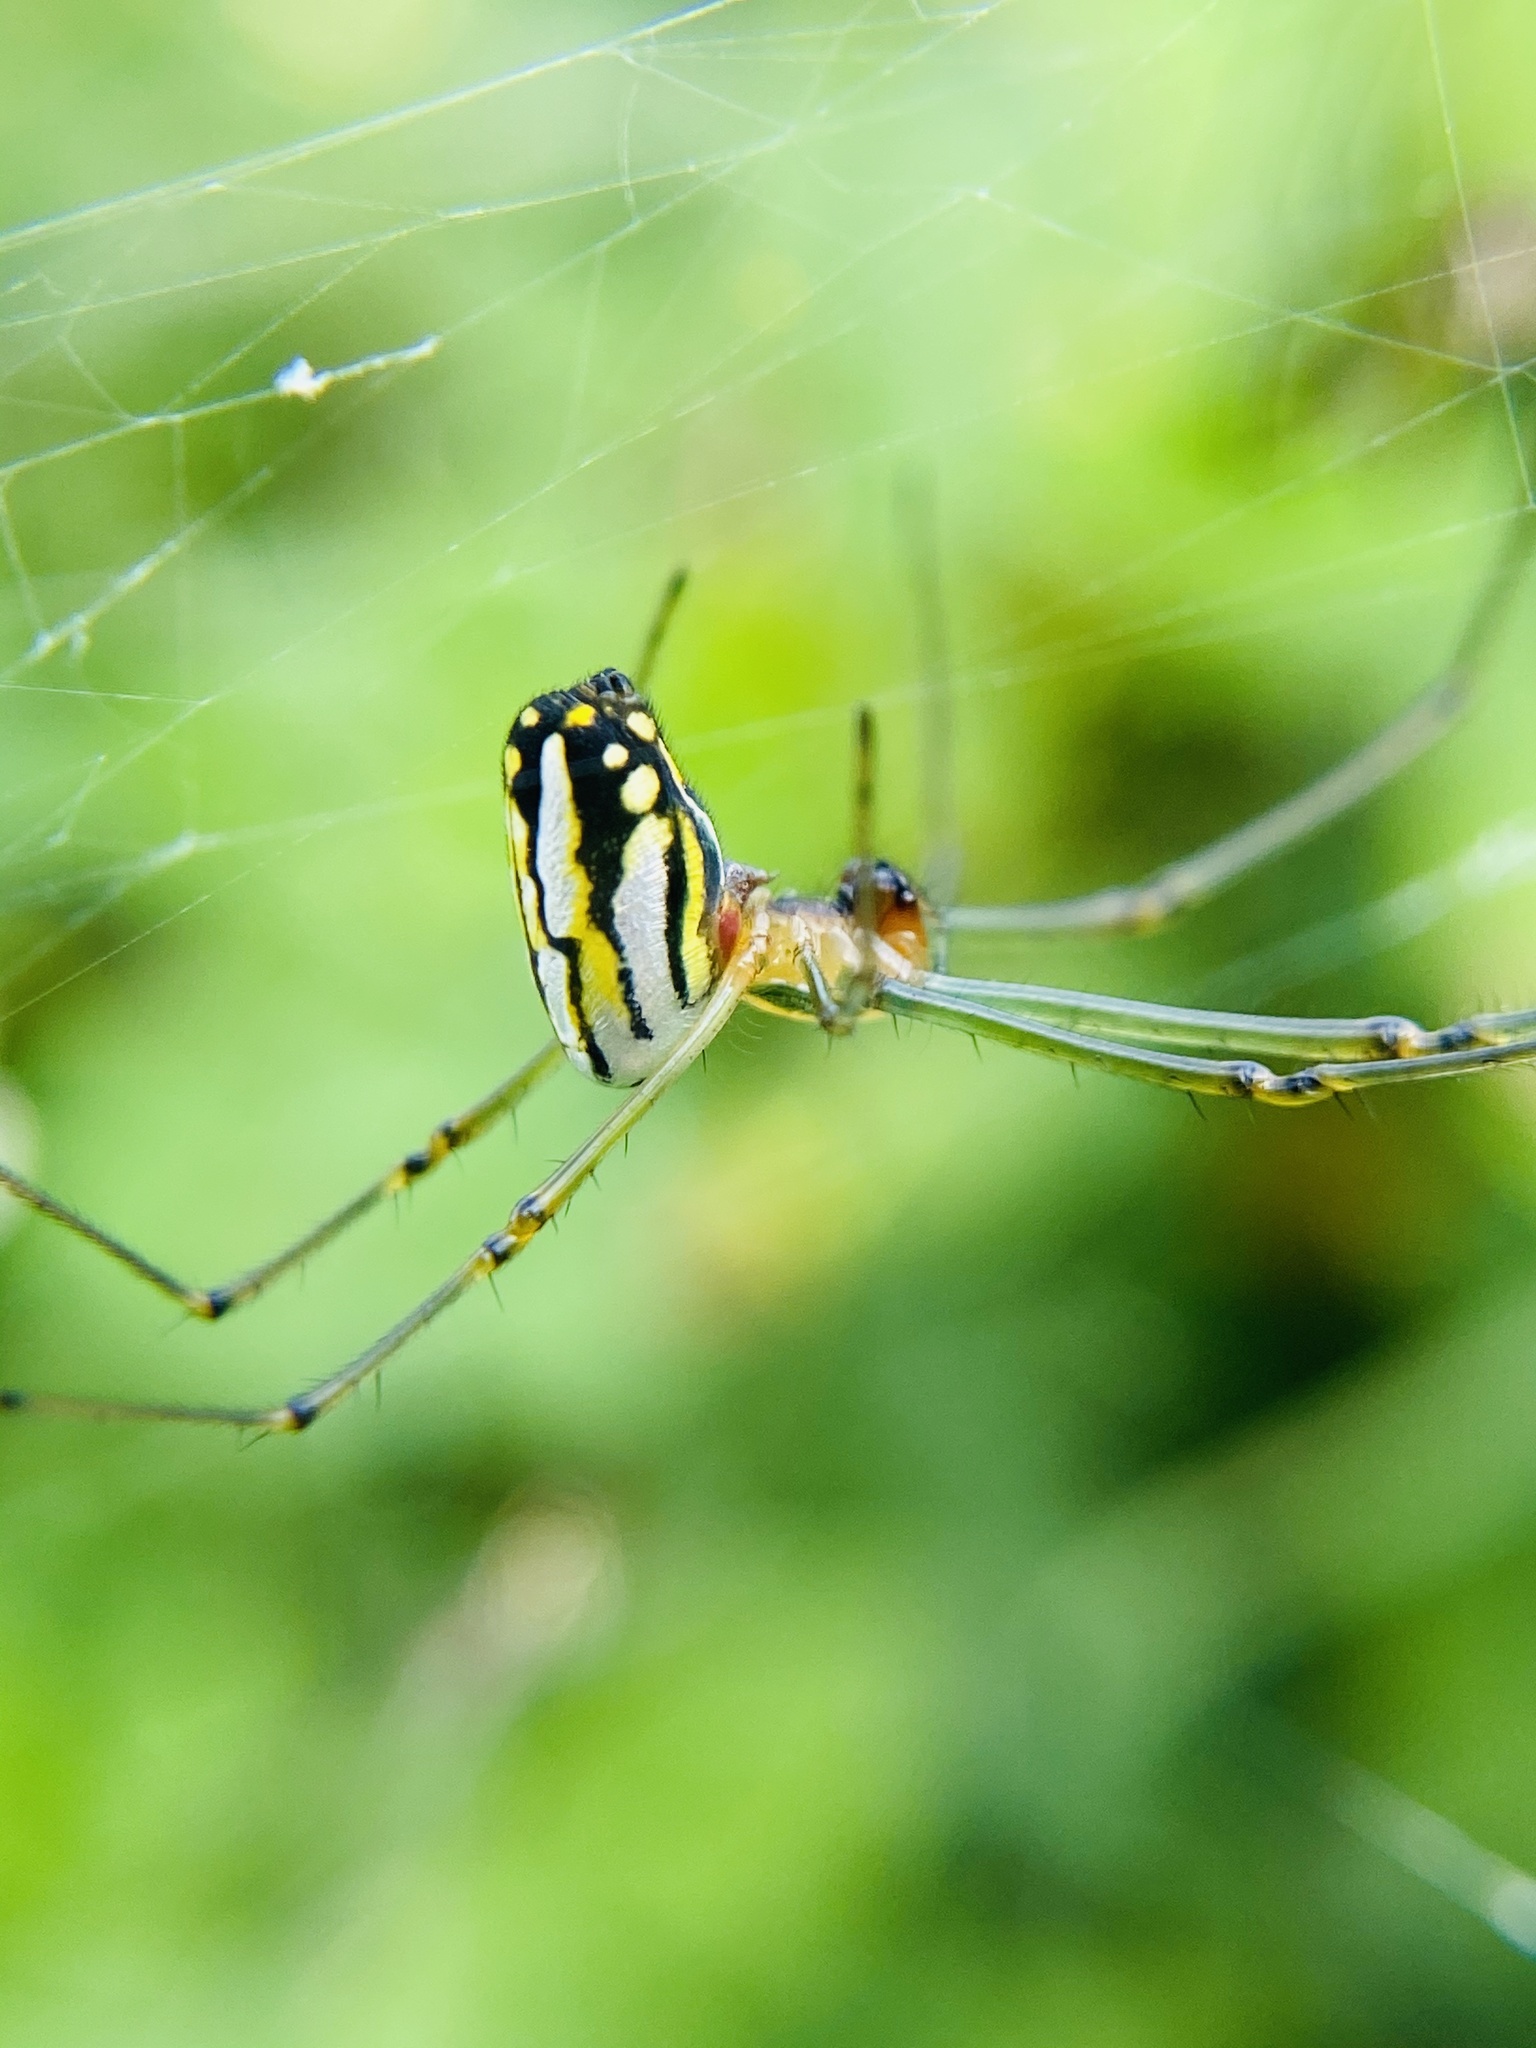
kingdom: Animalia
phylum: Arthropoda
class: Arachnida
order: Araneae
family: Tetragnathidae
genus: Leucauge
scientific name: Leucauge argyra
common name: Longjawed orb weavers
